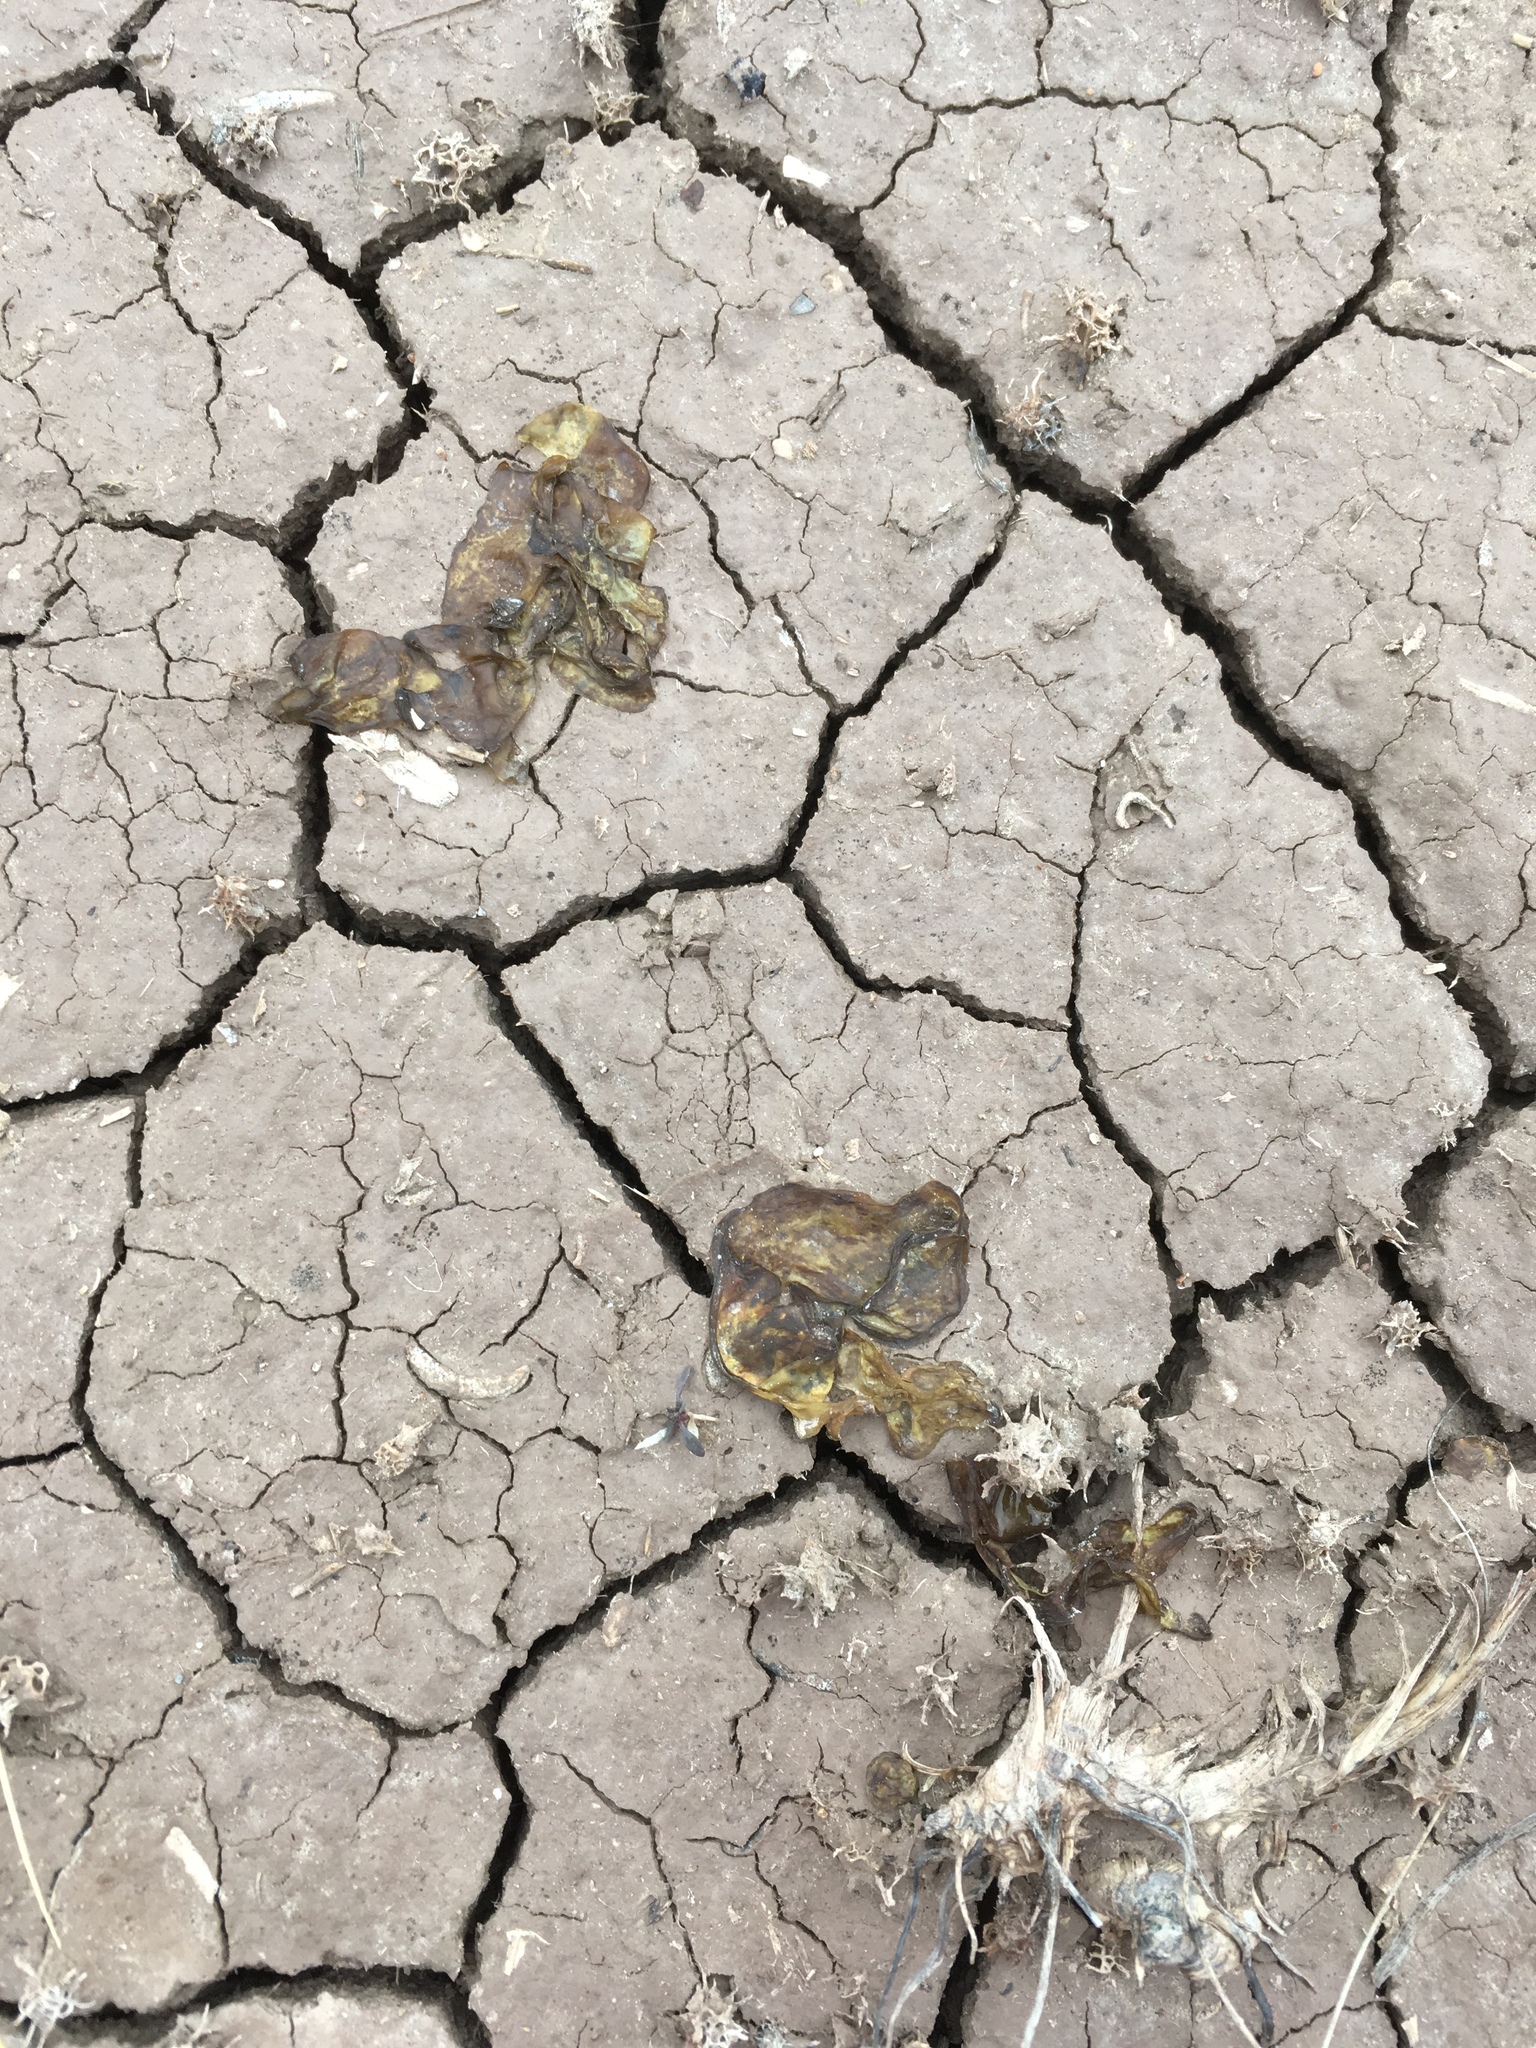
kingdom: Bacteria
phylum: Cyanobacteria
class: Cyanobacteriia
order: Cyanobacteriales
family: Nostocaceae
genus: Nostoc
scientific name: Nostoc commune
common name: Star jelly
